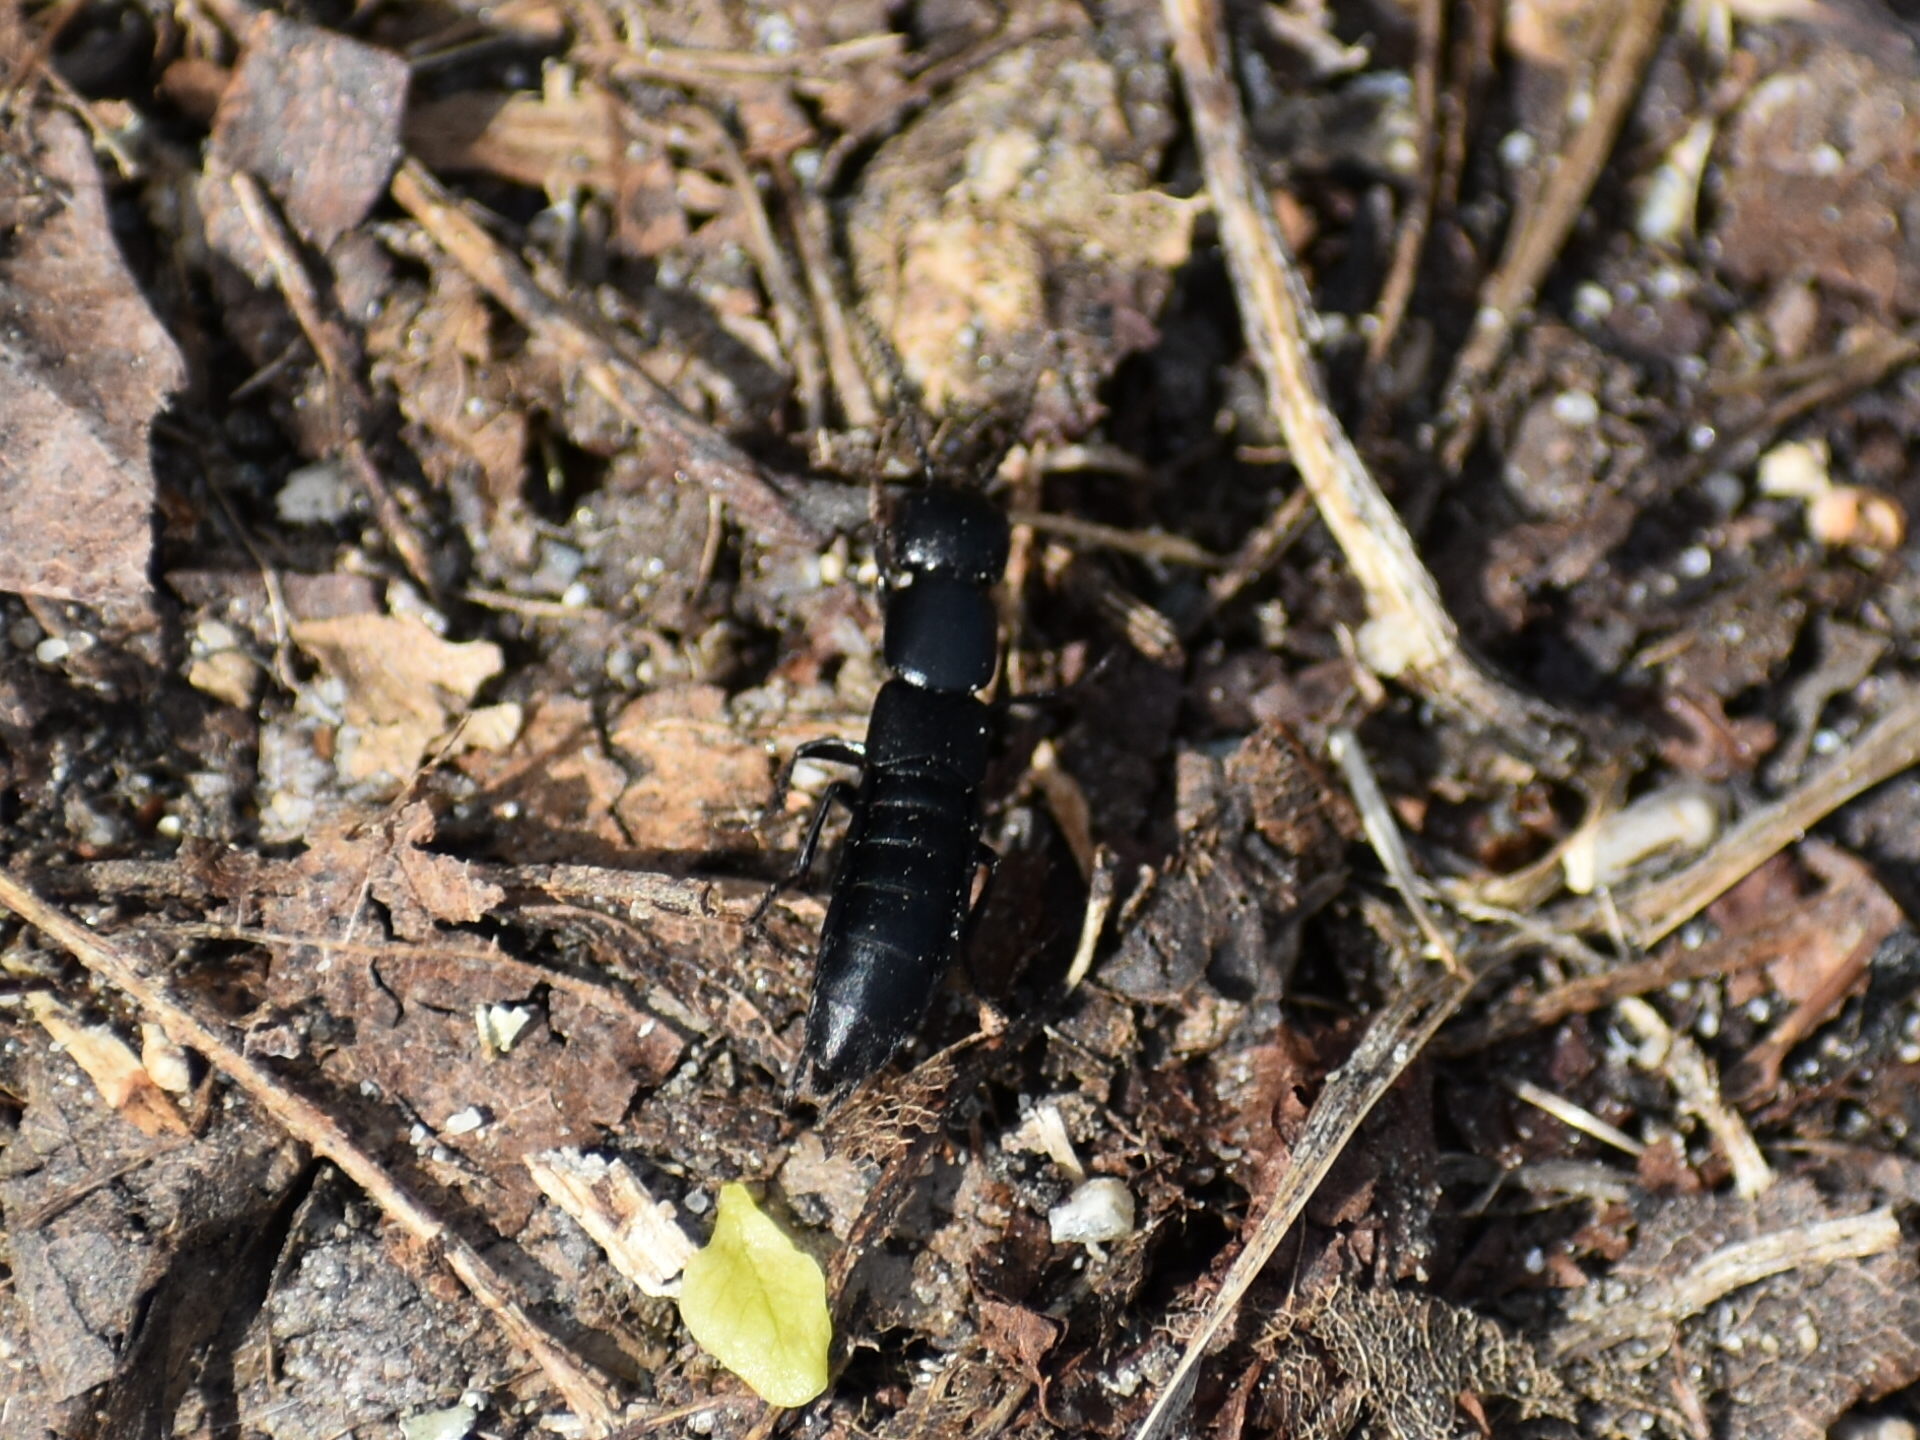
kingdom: Animalia
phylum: Arthropoda
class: Insecta
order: Coleoptera
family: Staphylinidae
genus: Ocypus
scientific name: Ocypus nitens
